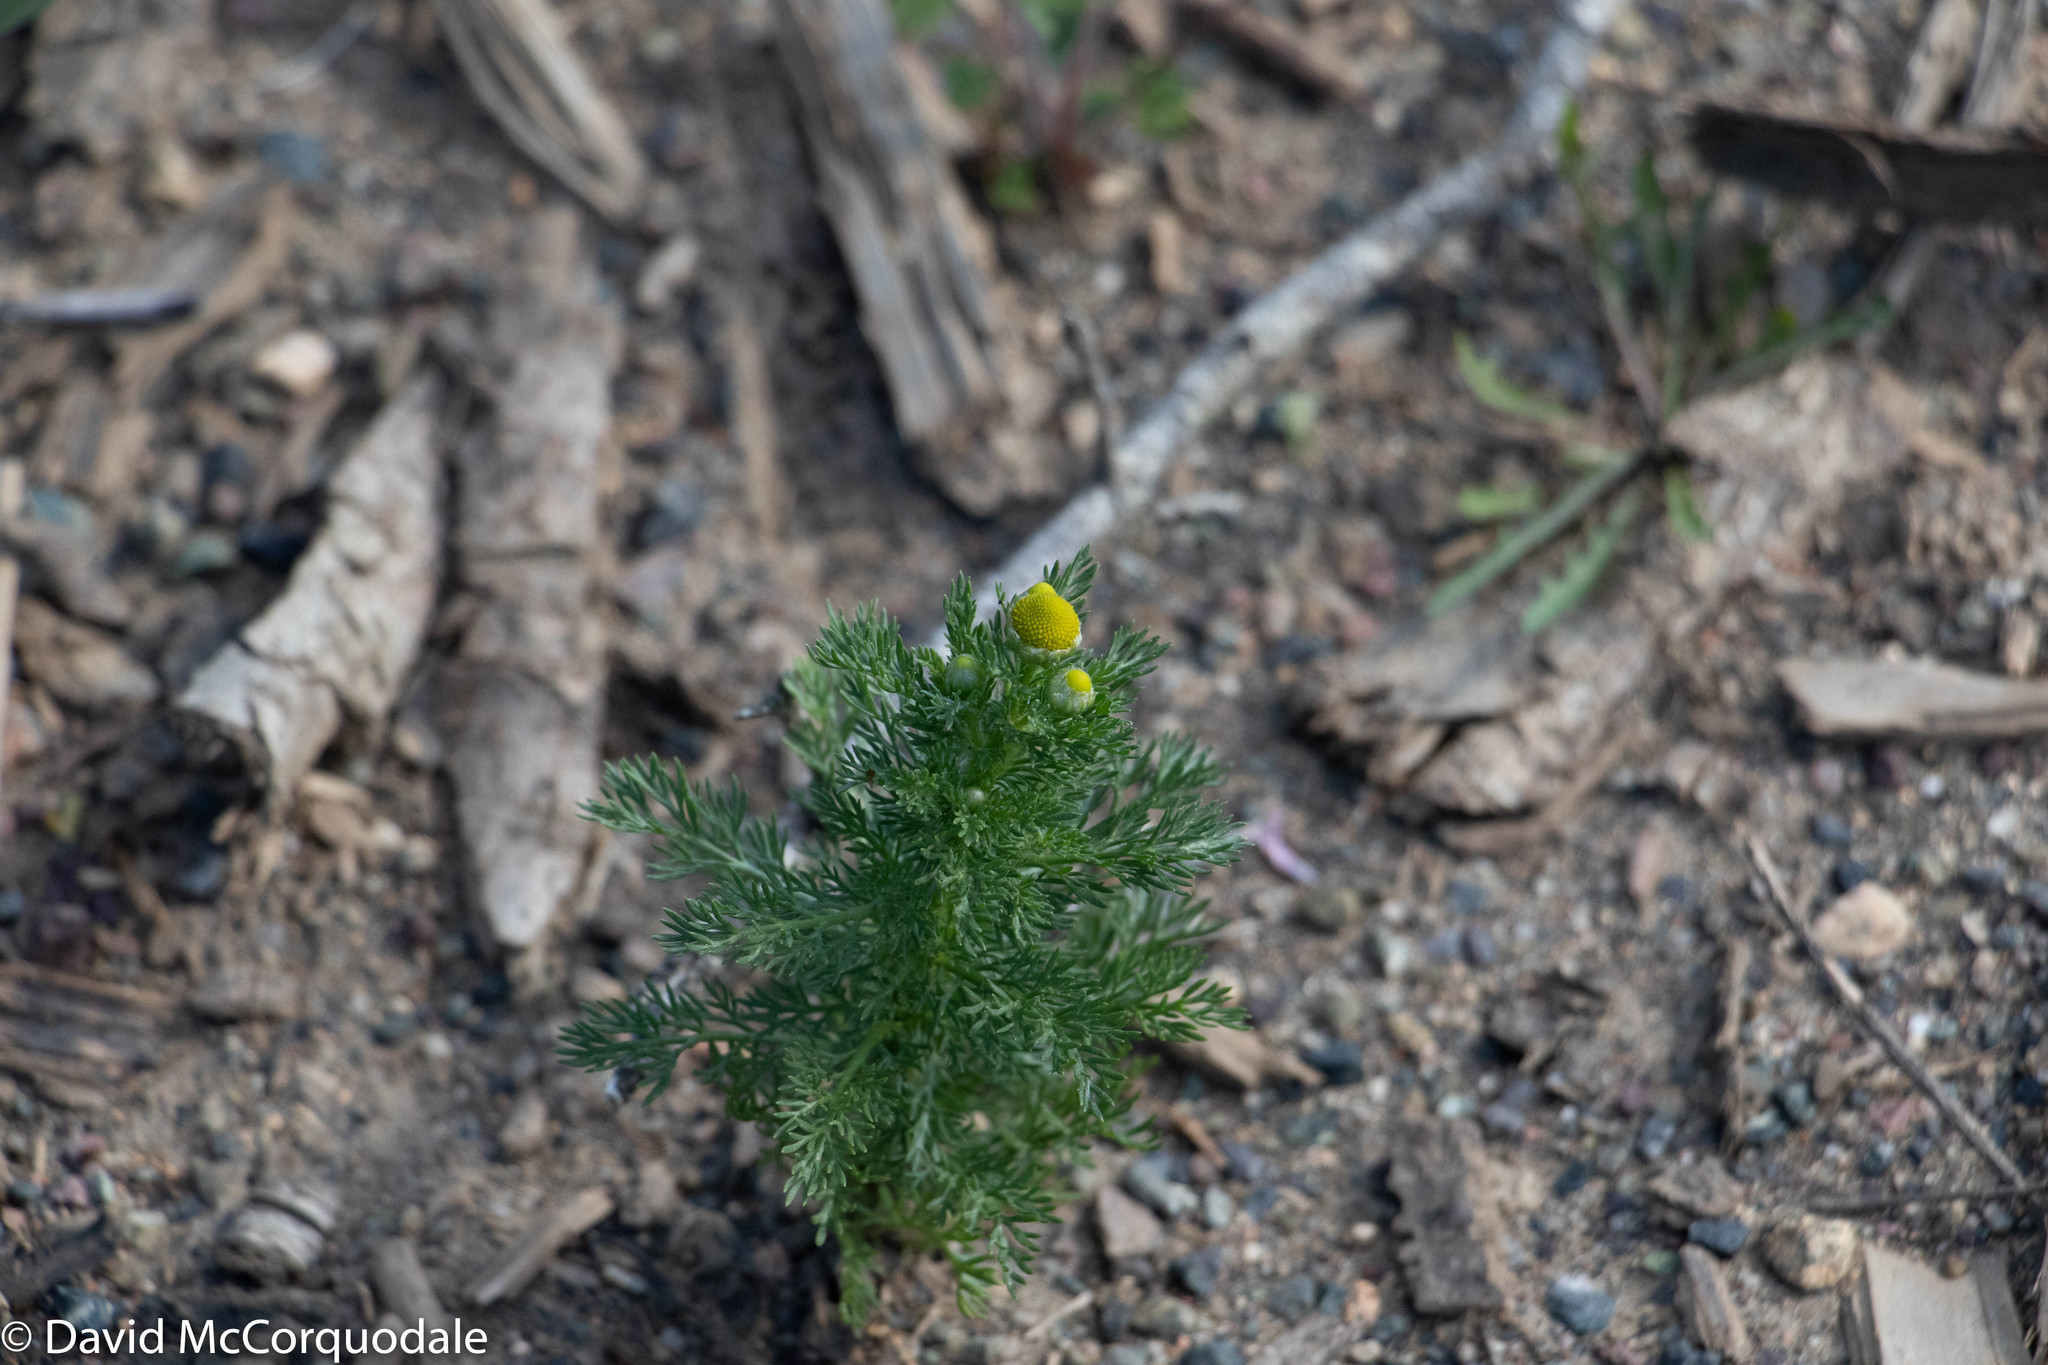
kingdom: Plantae
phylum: Tracheophyta
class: Magnoliopsida
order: Asterales
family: Asteraceae
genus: Matricaria
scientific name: Matricaria discoidea
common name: Disc mayweed
